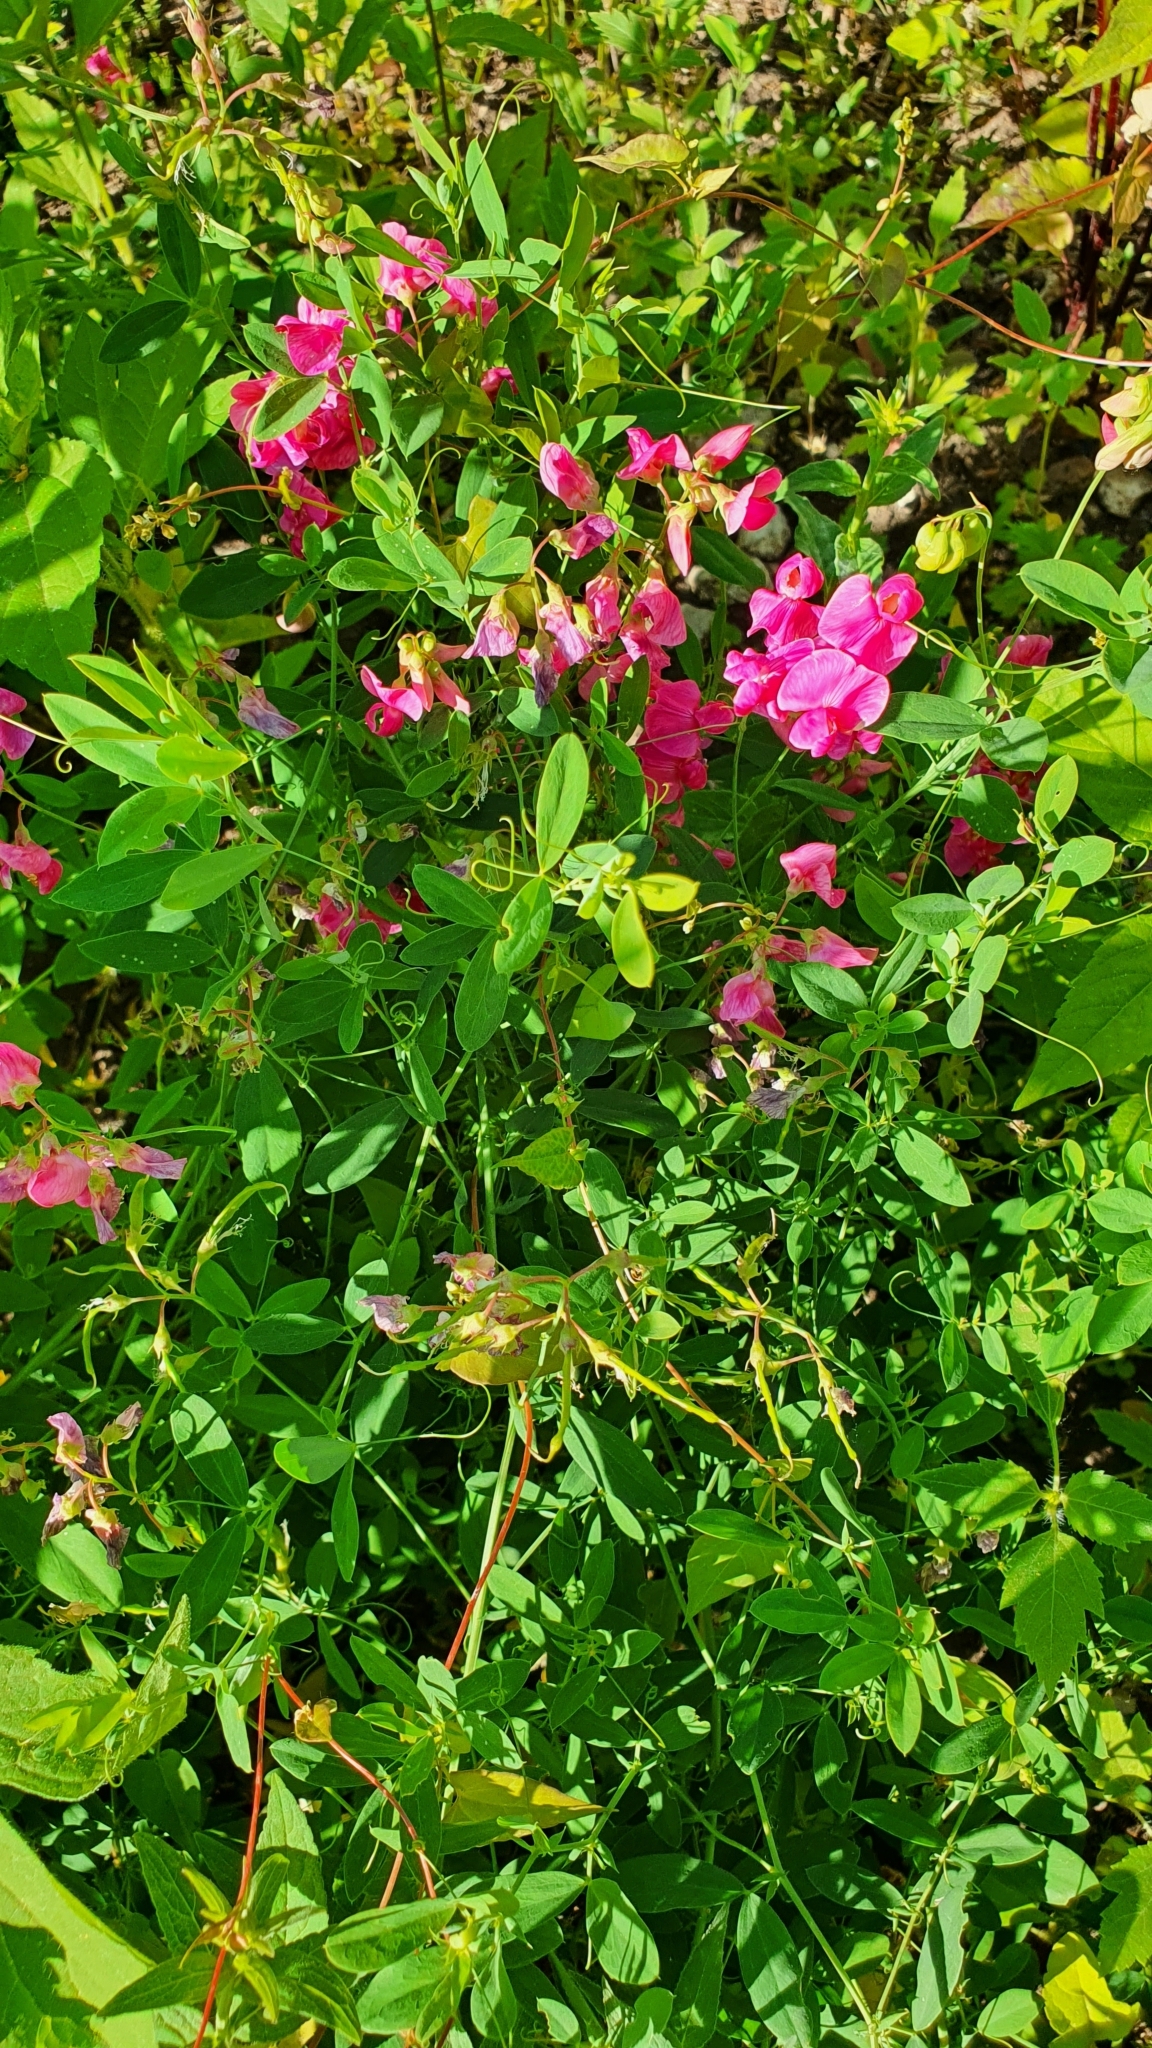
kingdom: Plantae
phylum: Tracheophyta
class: Magnoliopsida
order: Fabales
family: Fabaceae
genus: Lathyrus
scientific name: Lathyrus tuberosus
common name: Tuberous pea
